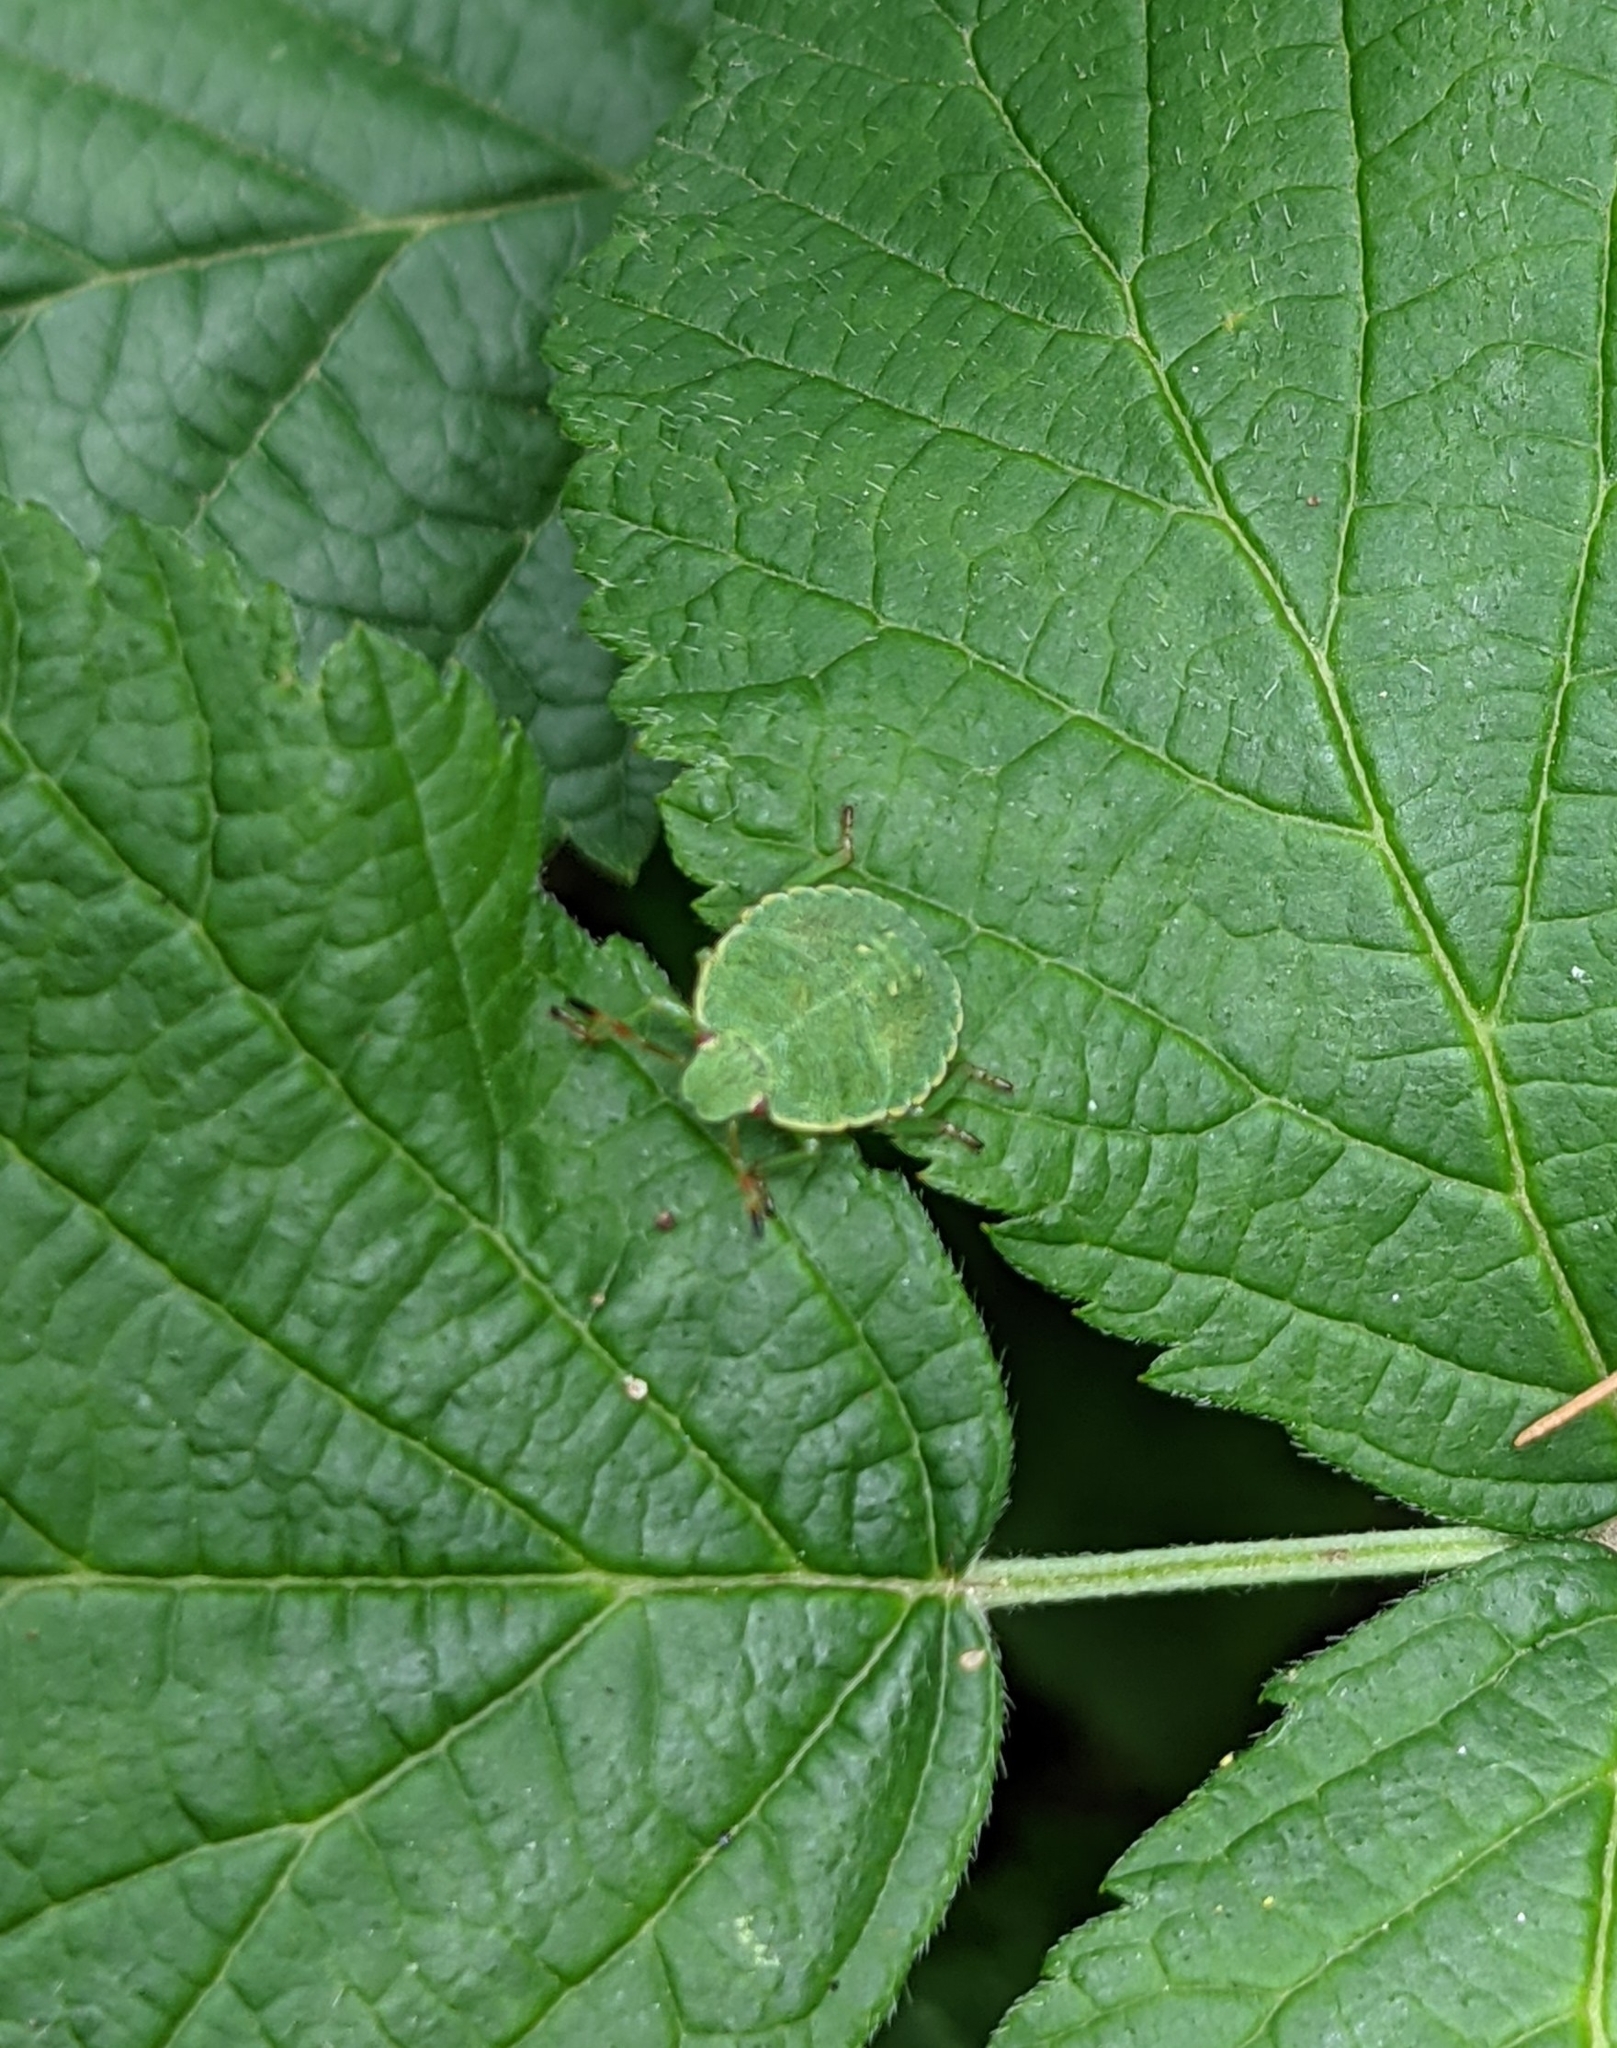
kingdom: Animalia
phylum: Arthropoda
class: Insecta
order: Hemiptera
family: Pentatomidae
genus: Palomena
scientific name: Palomena prasina
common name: Green shieldbug
